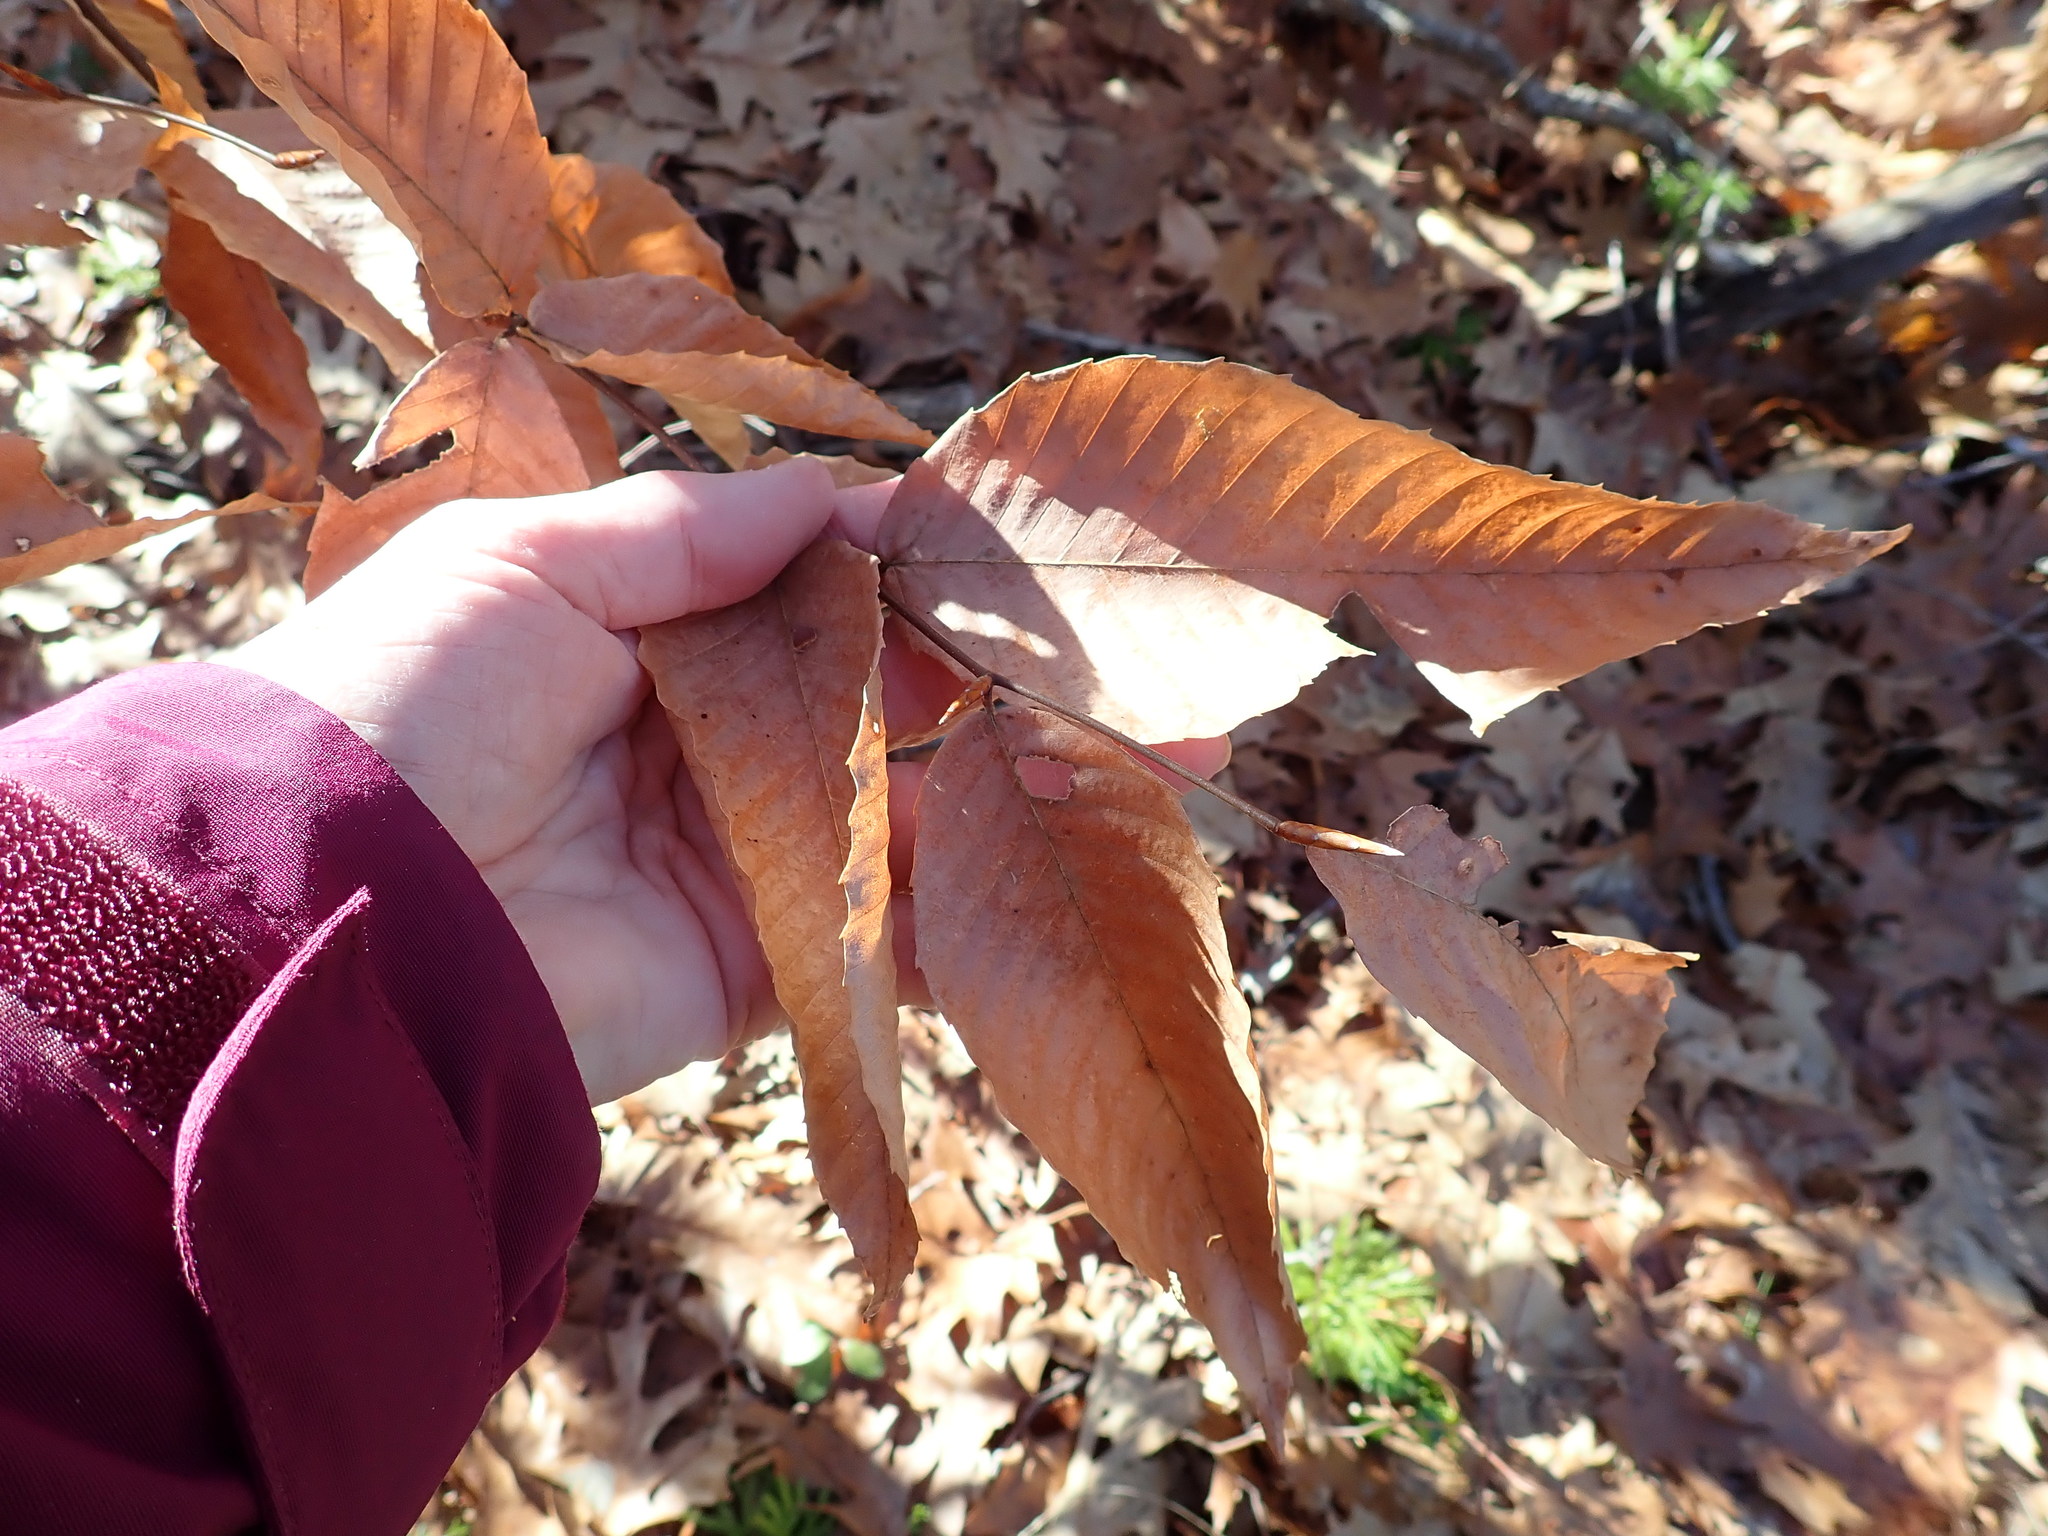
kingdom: Plantae
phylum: Tracheophyta
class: Magnoliopsida
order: Fagales
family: Fagaceae
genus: Fagus
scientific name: Fagus grandifolia
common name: American beech
